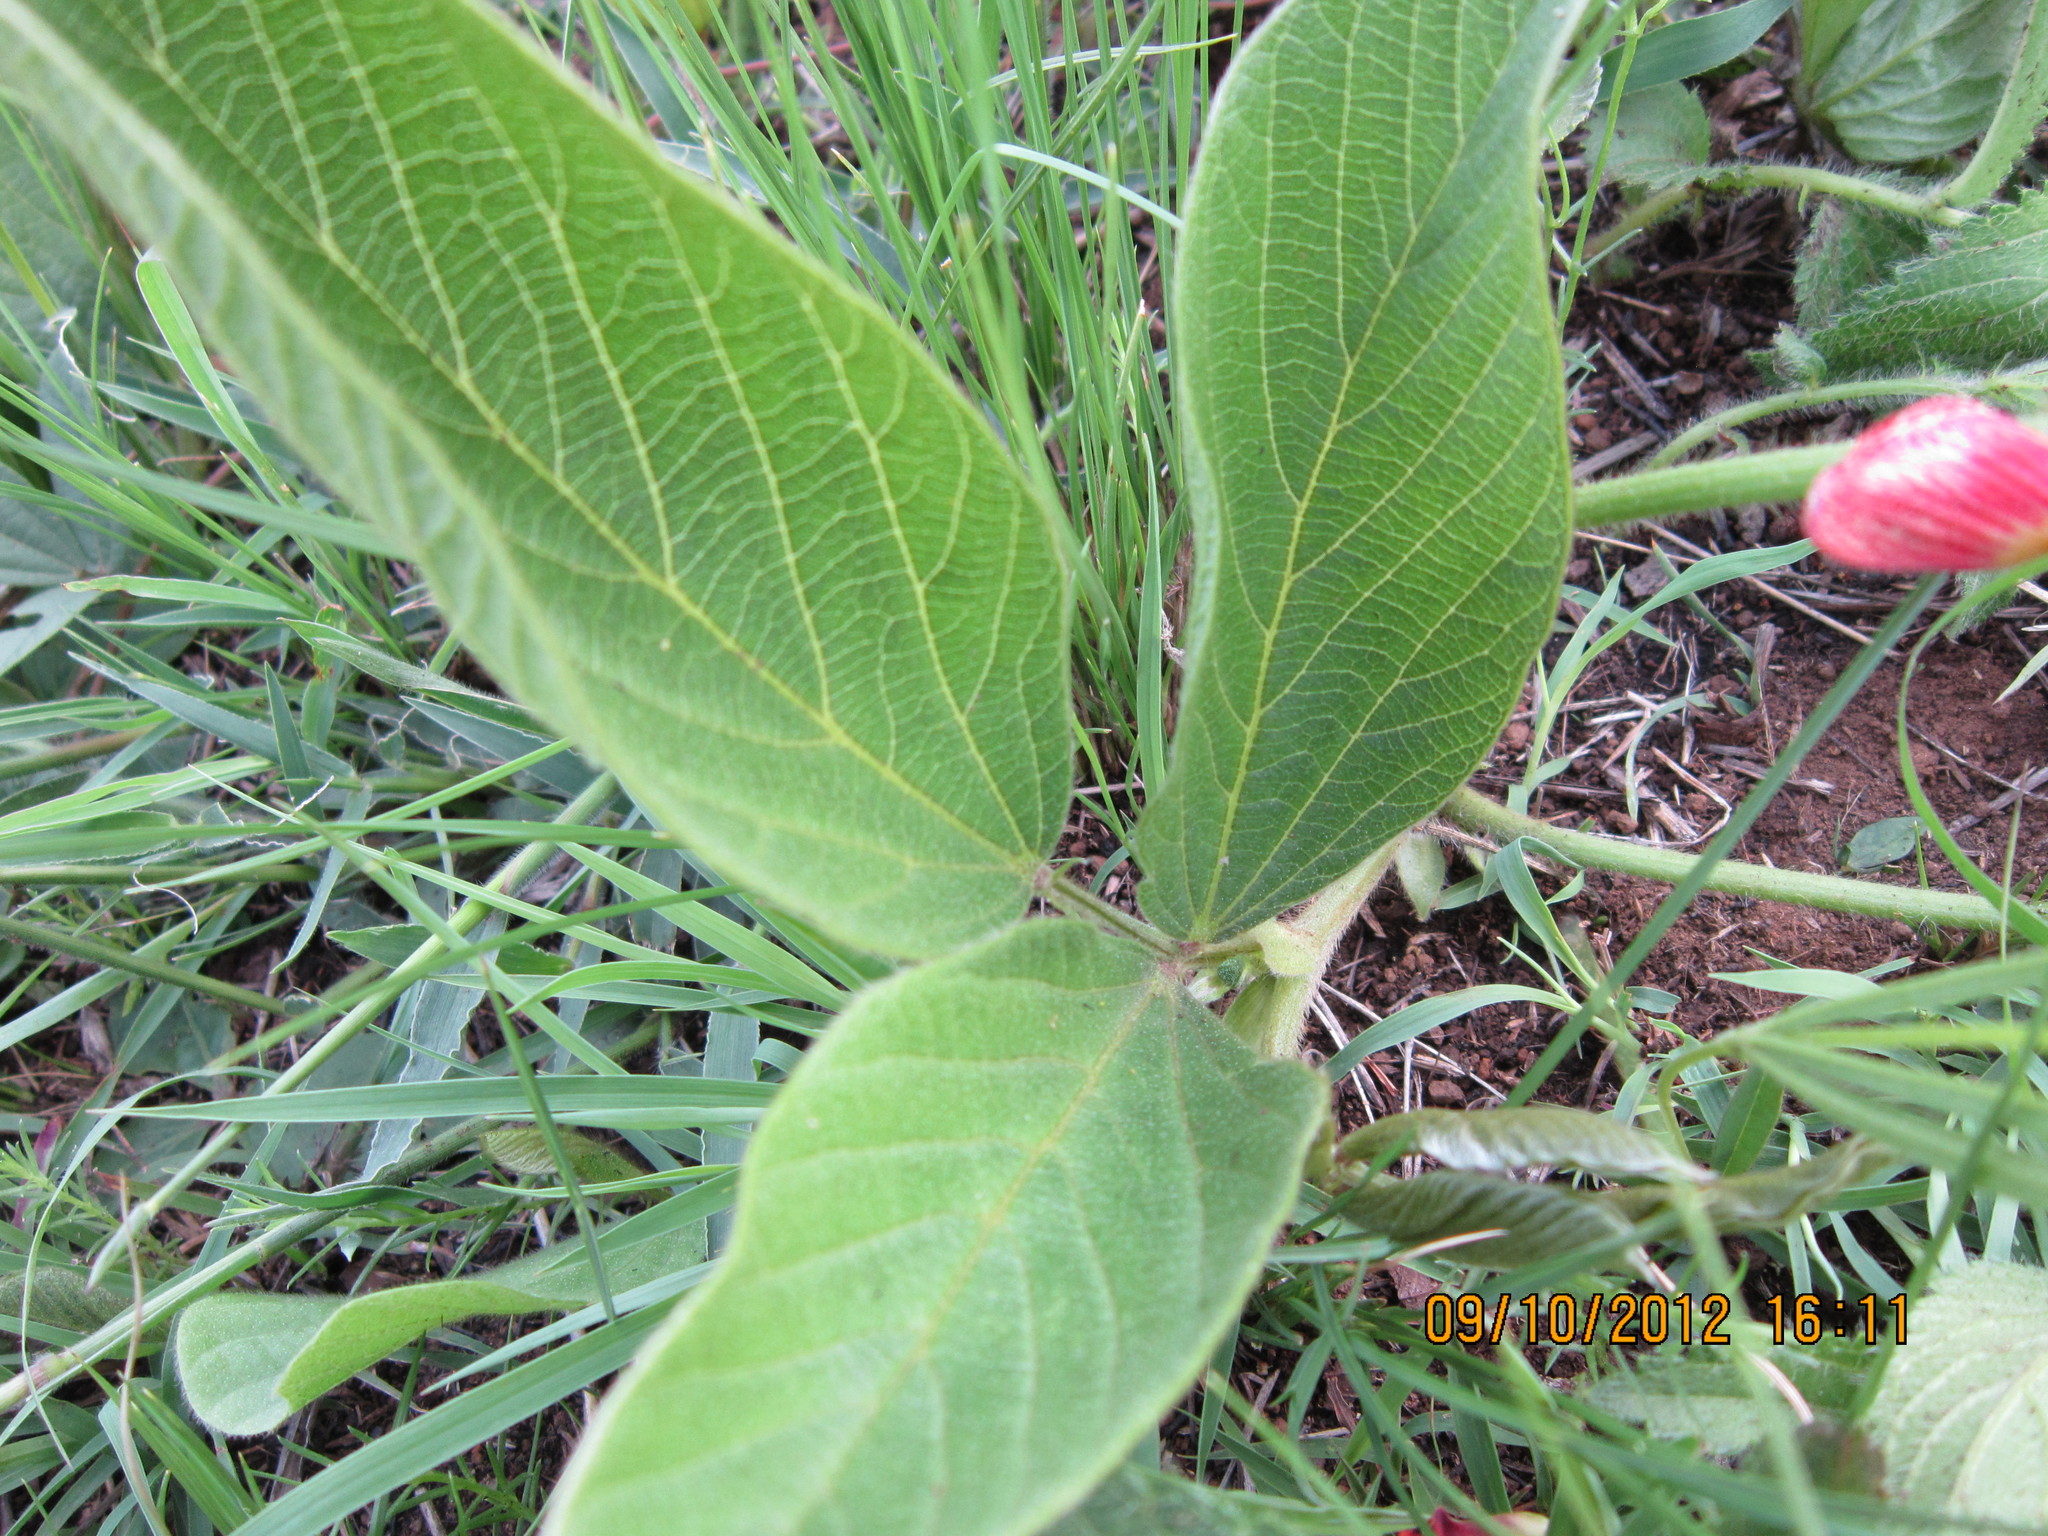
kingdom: Plantae
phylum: Tracheophyta
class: Magnoliopsida
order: Fabales
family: Fabaceae
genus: Eriosema
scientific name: Eriosema distinctum
